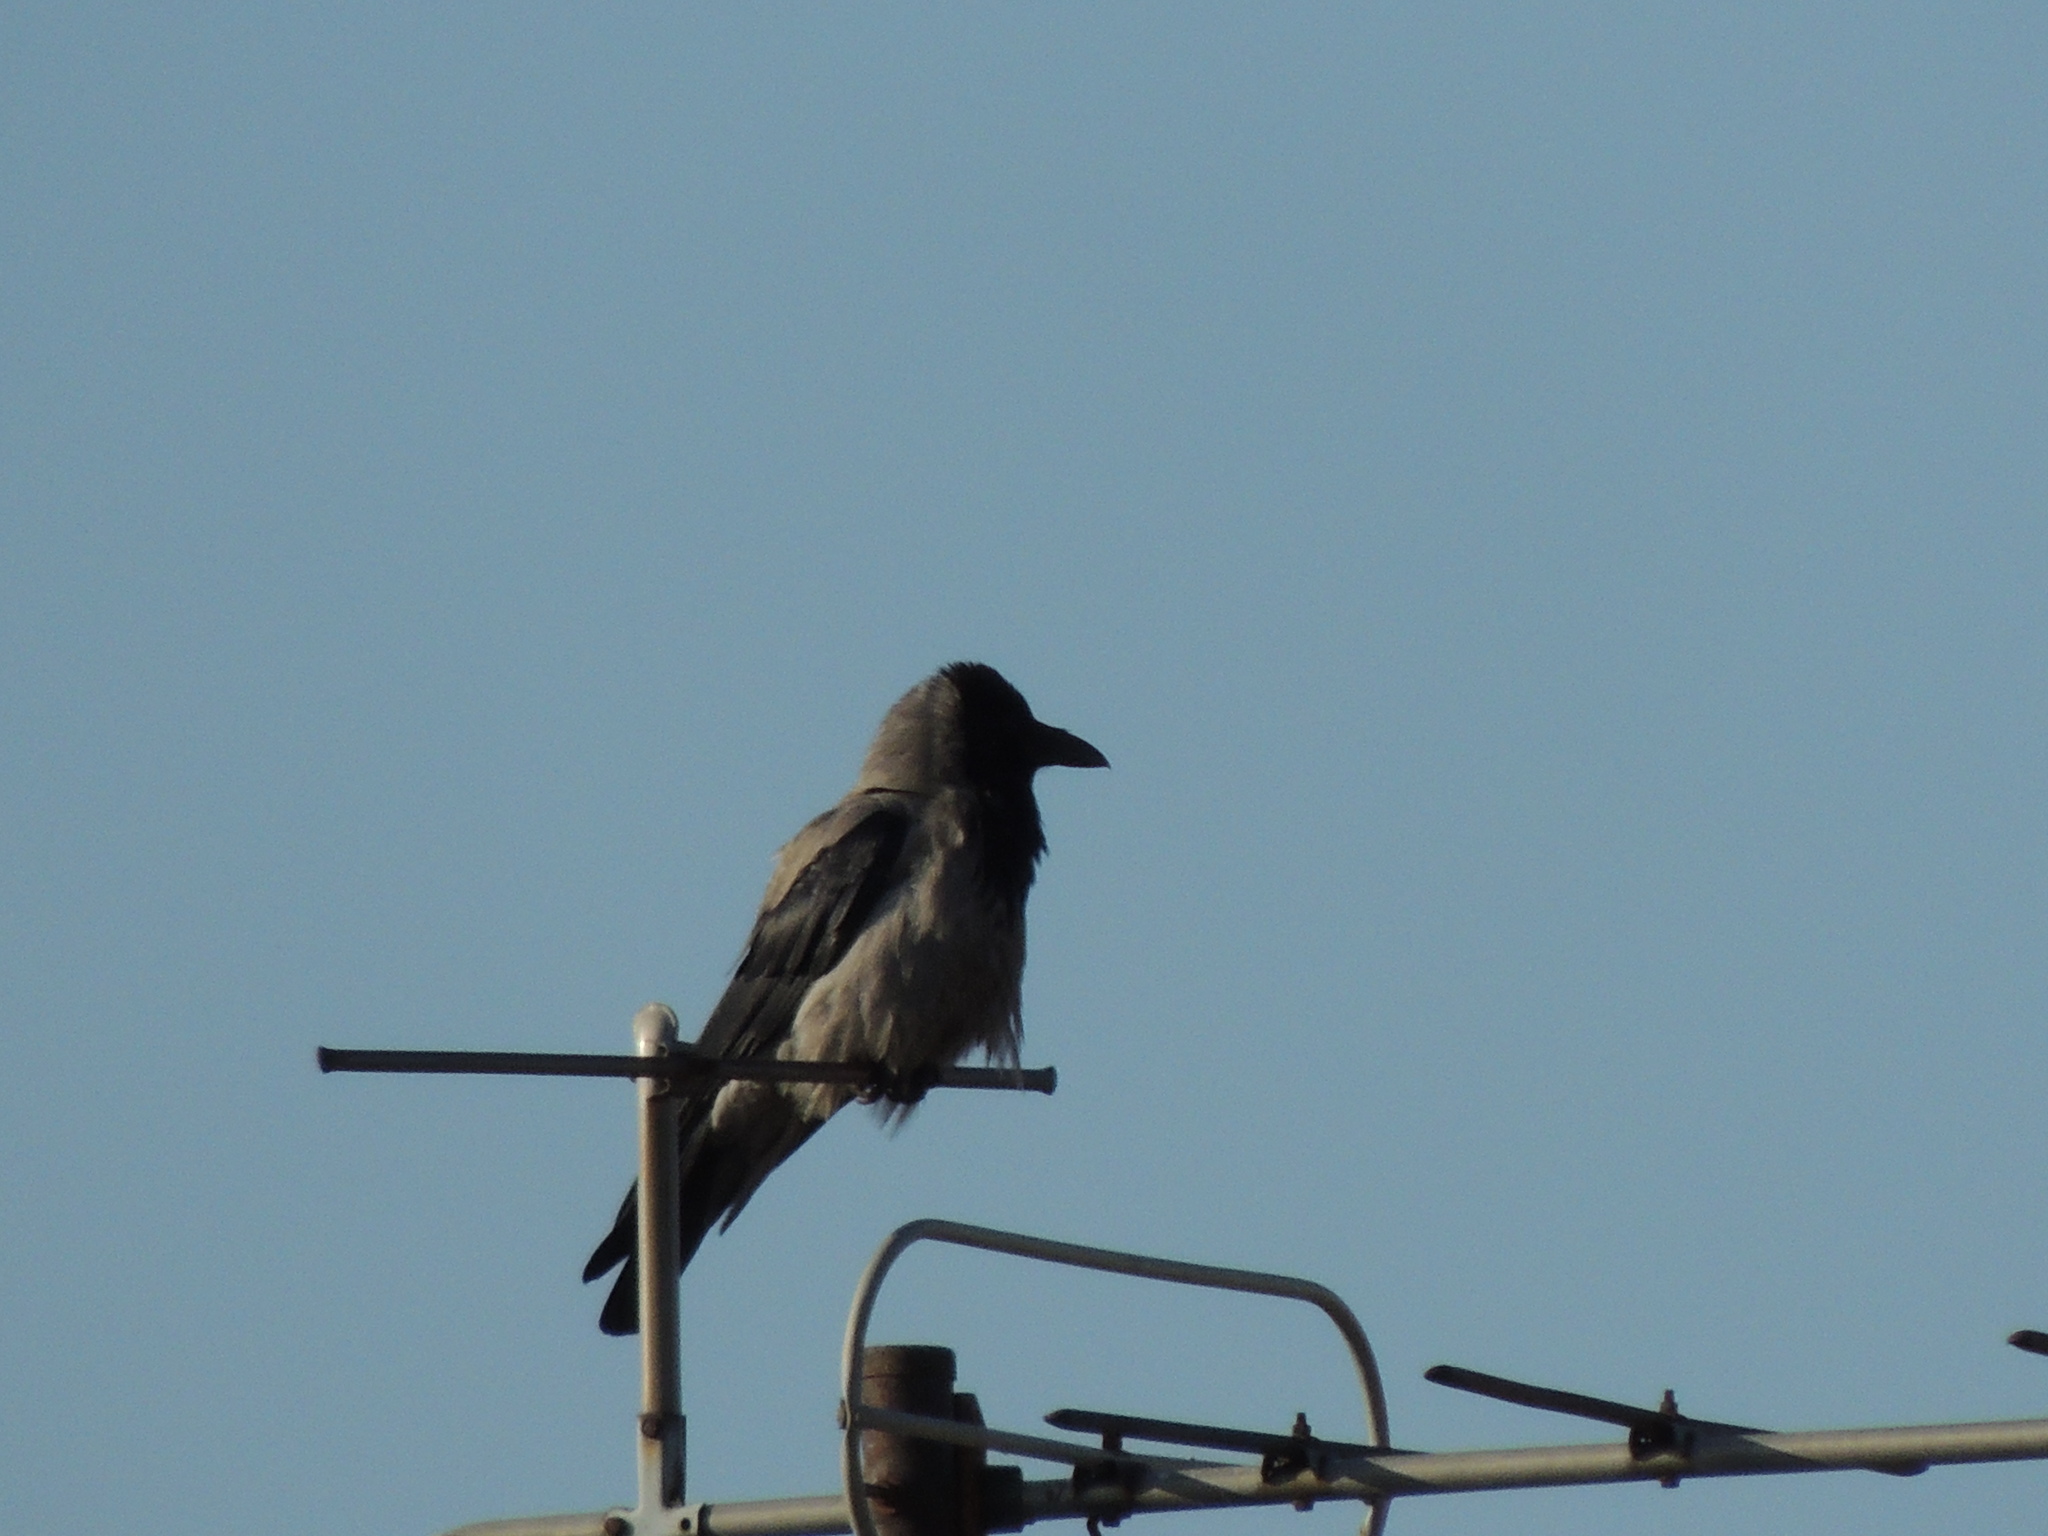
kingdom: Animalia
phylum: Chordata
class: Aves
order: Passeriformes
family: Corvidae
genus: Corvus
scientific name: Corvus cornix
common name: Hooded crow
